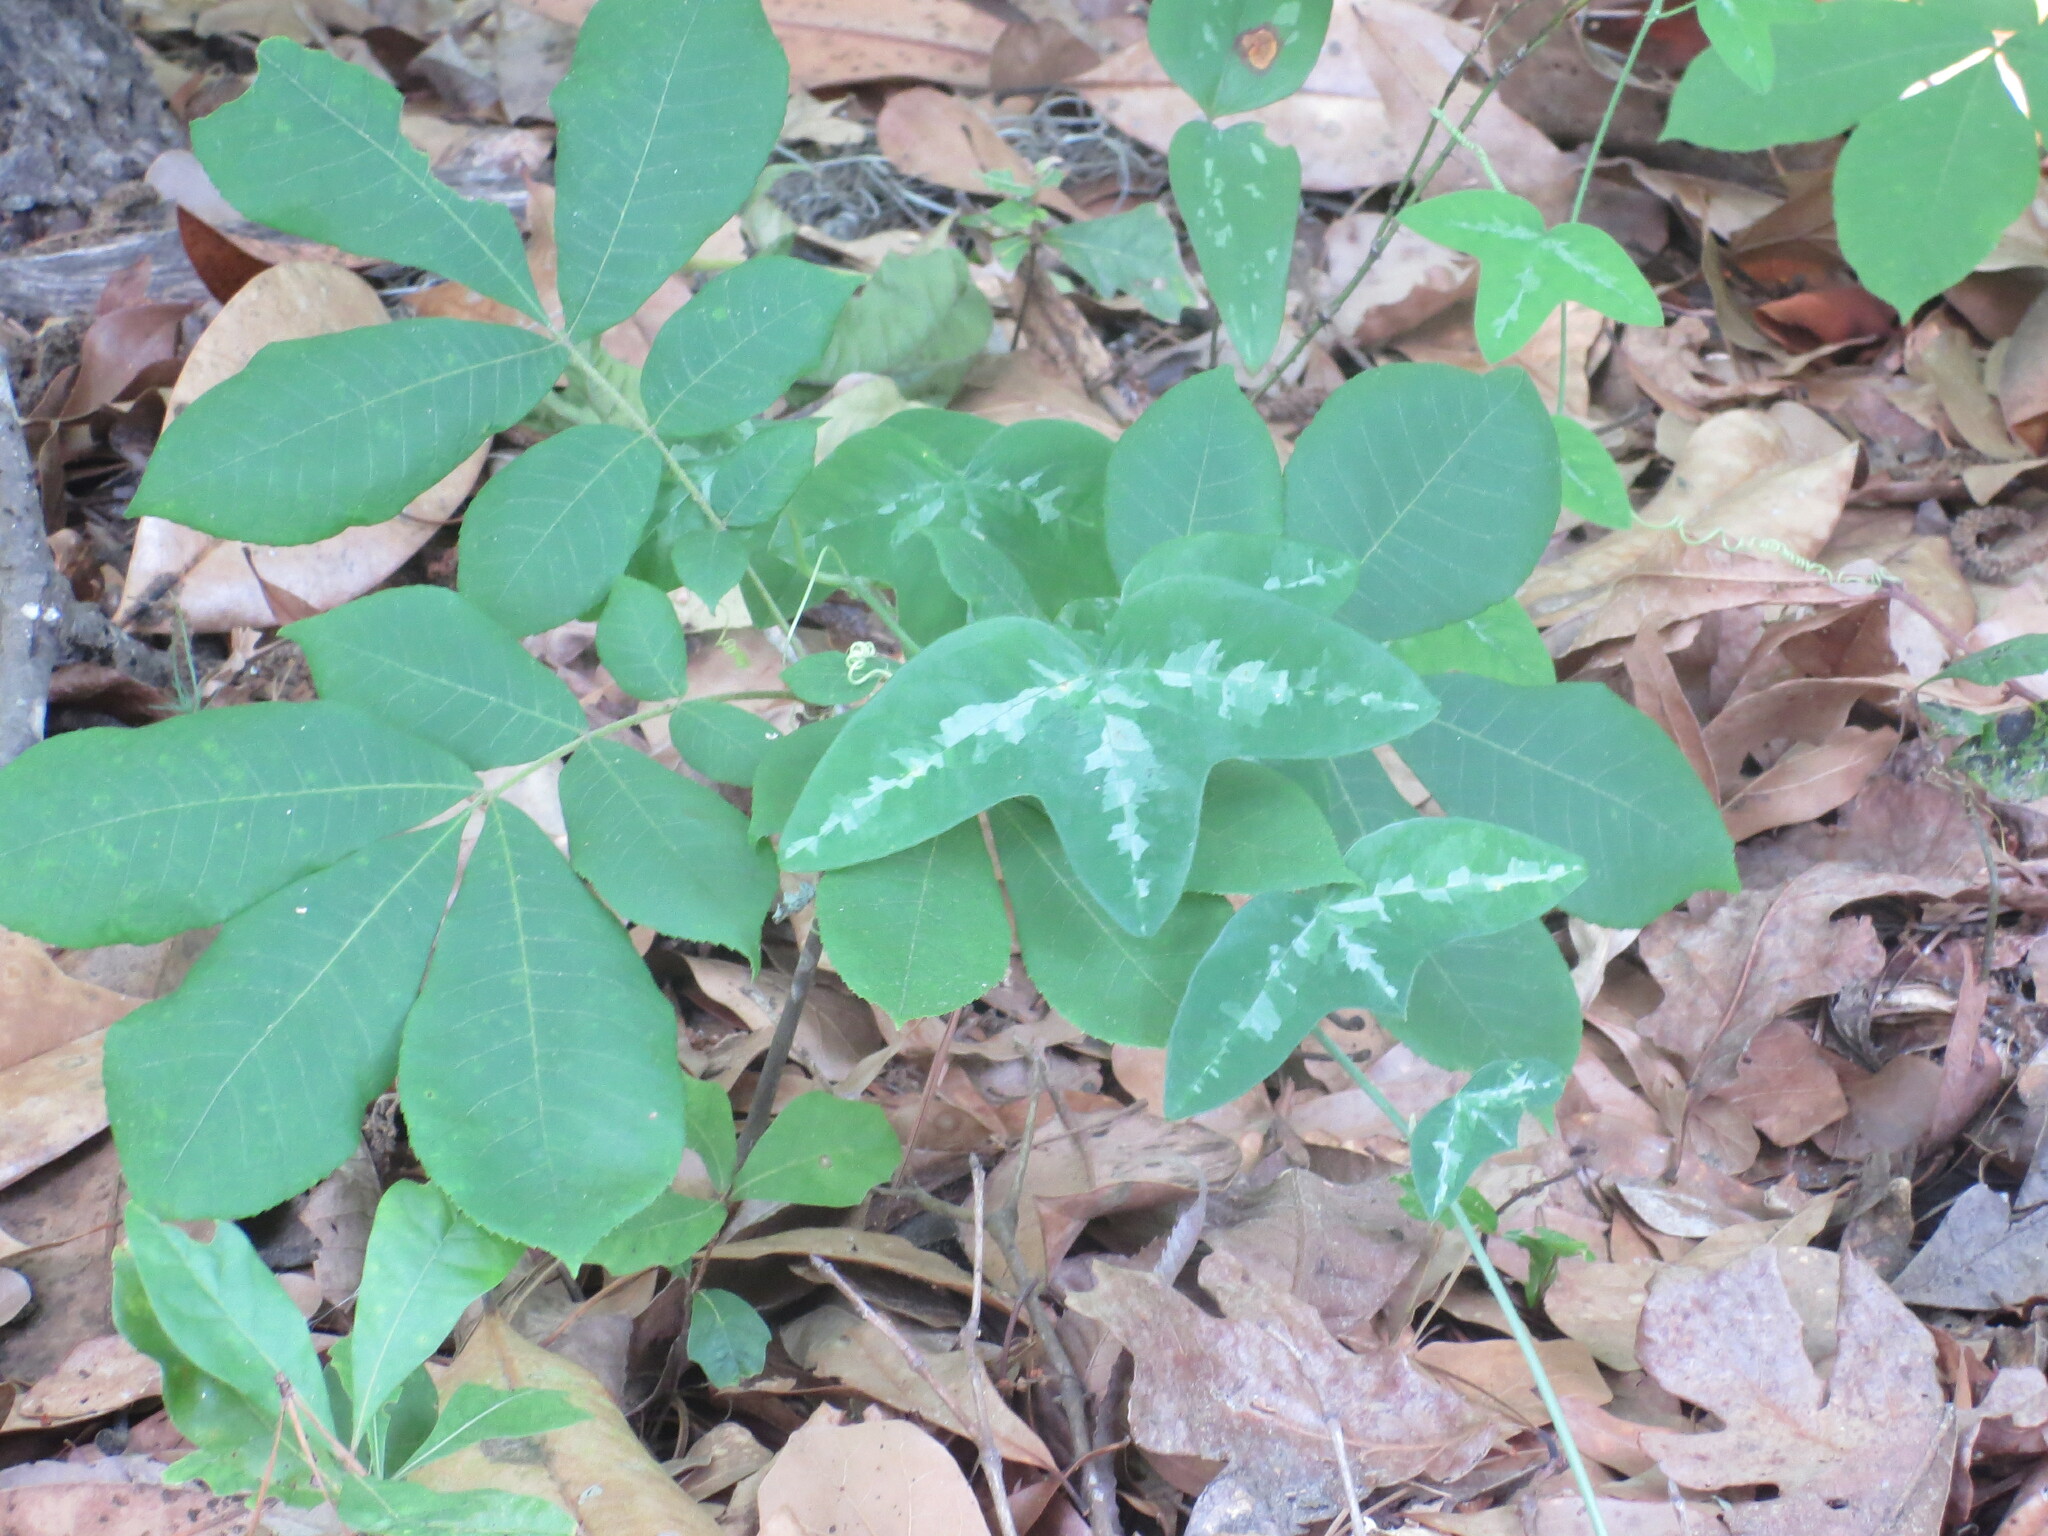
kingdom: Plantae
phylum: Tracheophyta
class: Magnoliopsida
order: Malpighiales
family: Passifloraceae
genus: Passiflora
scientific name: Passiflora lutea
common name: Yellow passionflower
